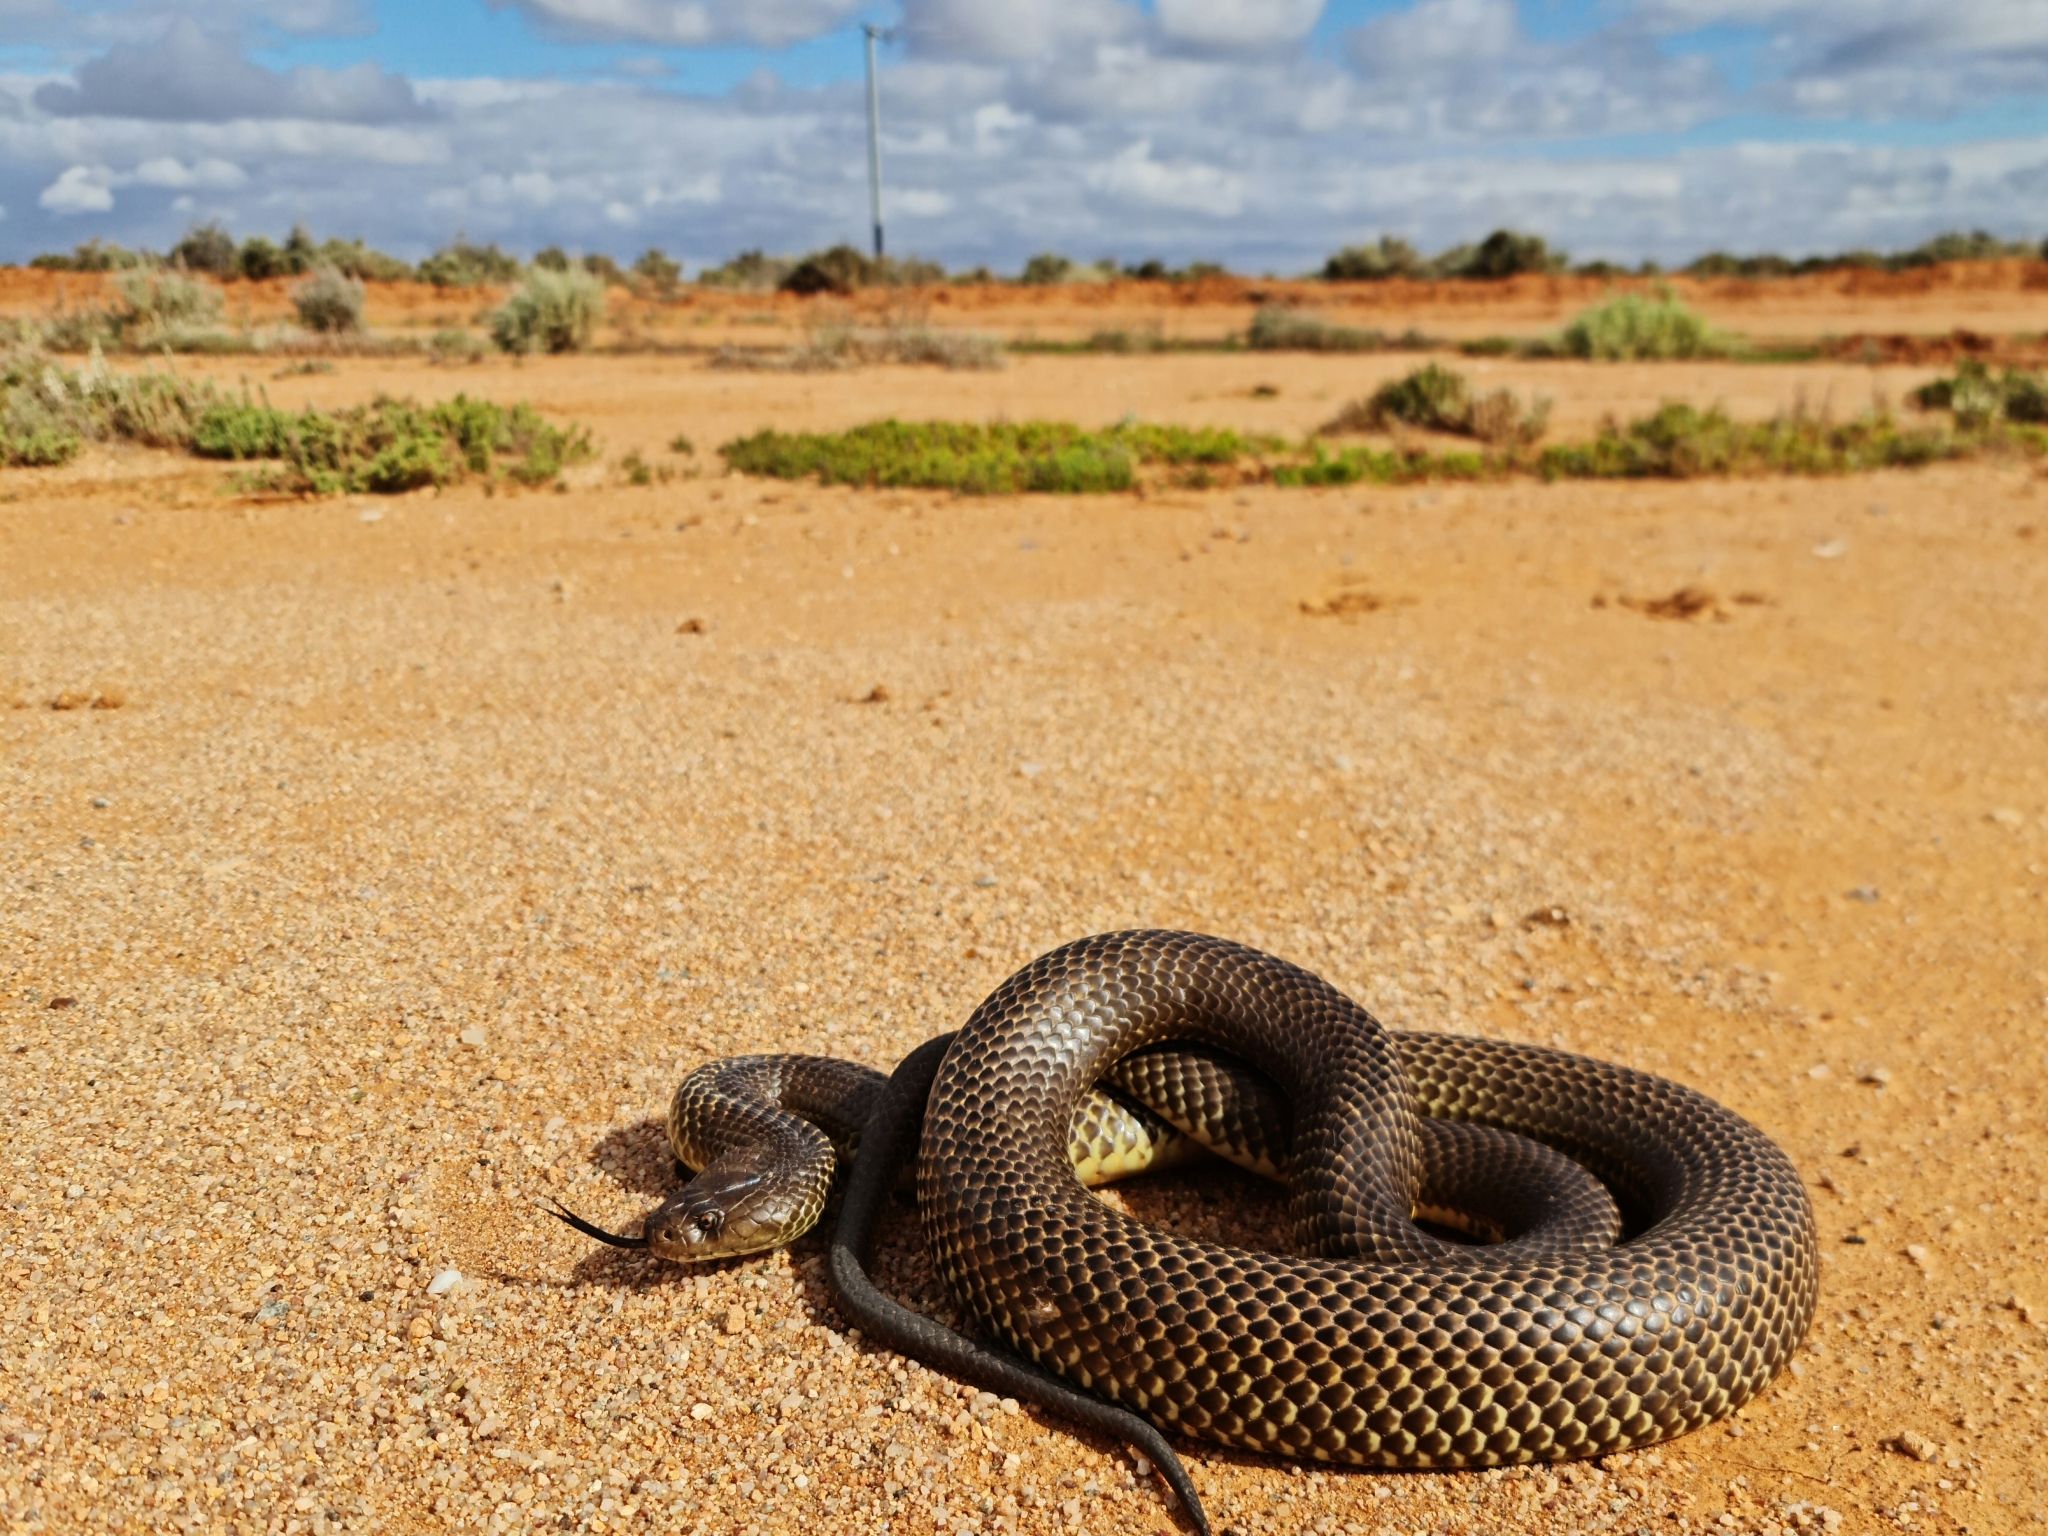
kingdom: Animalia
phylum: Chordata
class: Squamata
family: Elapidae
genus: Pseudechis
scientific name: Pseudechis australis
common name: King brown snake
